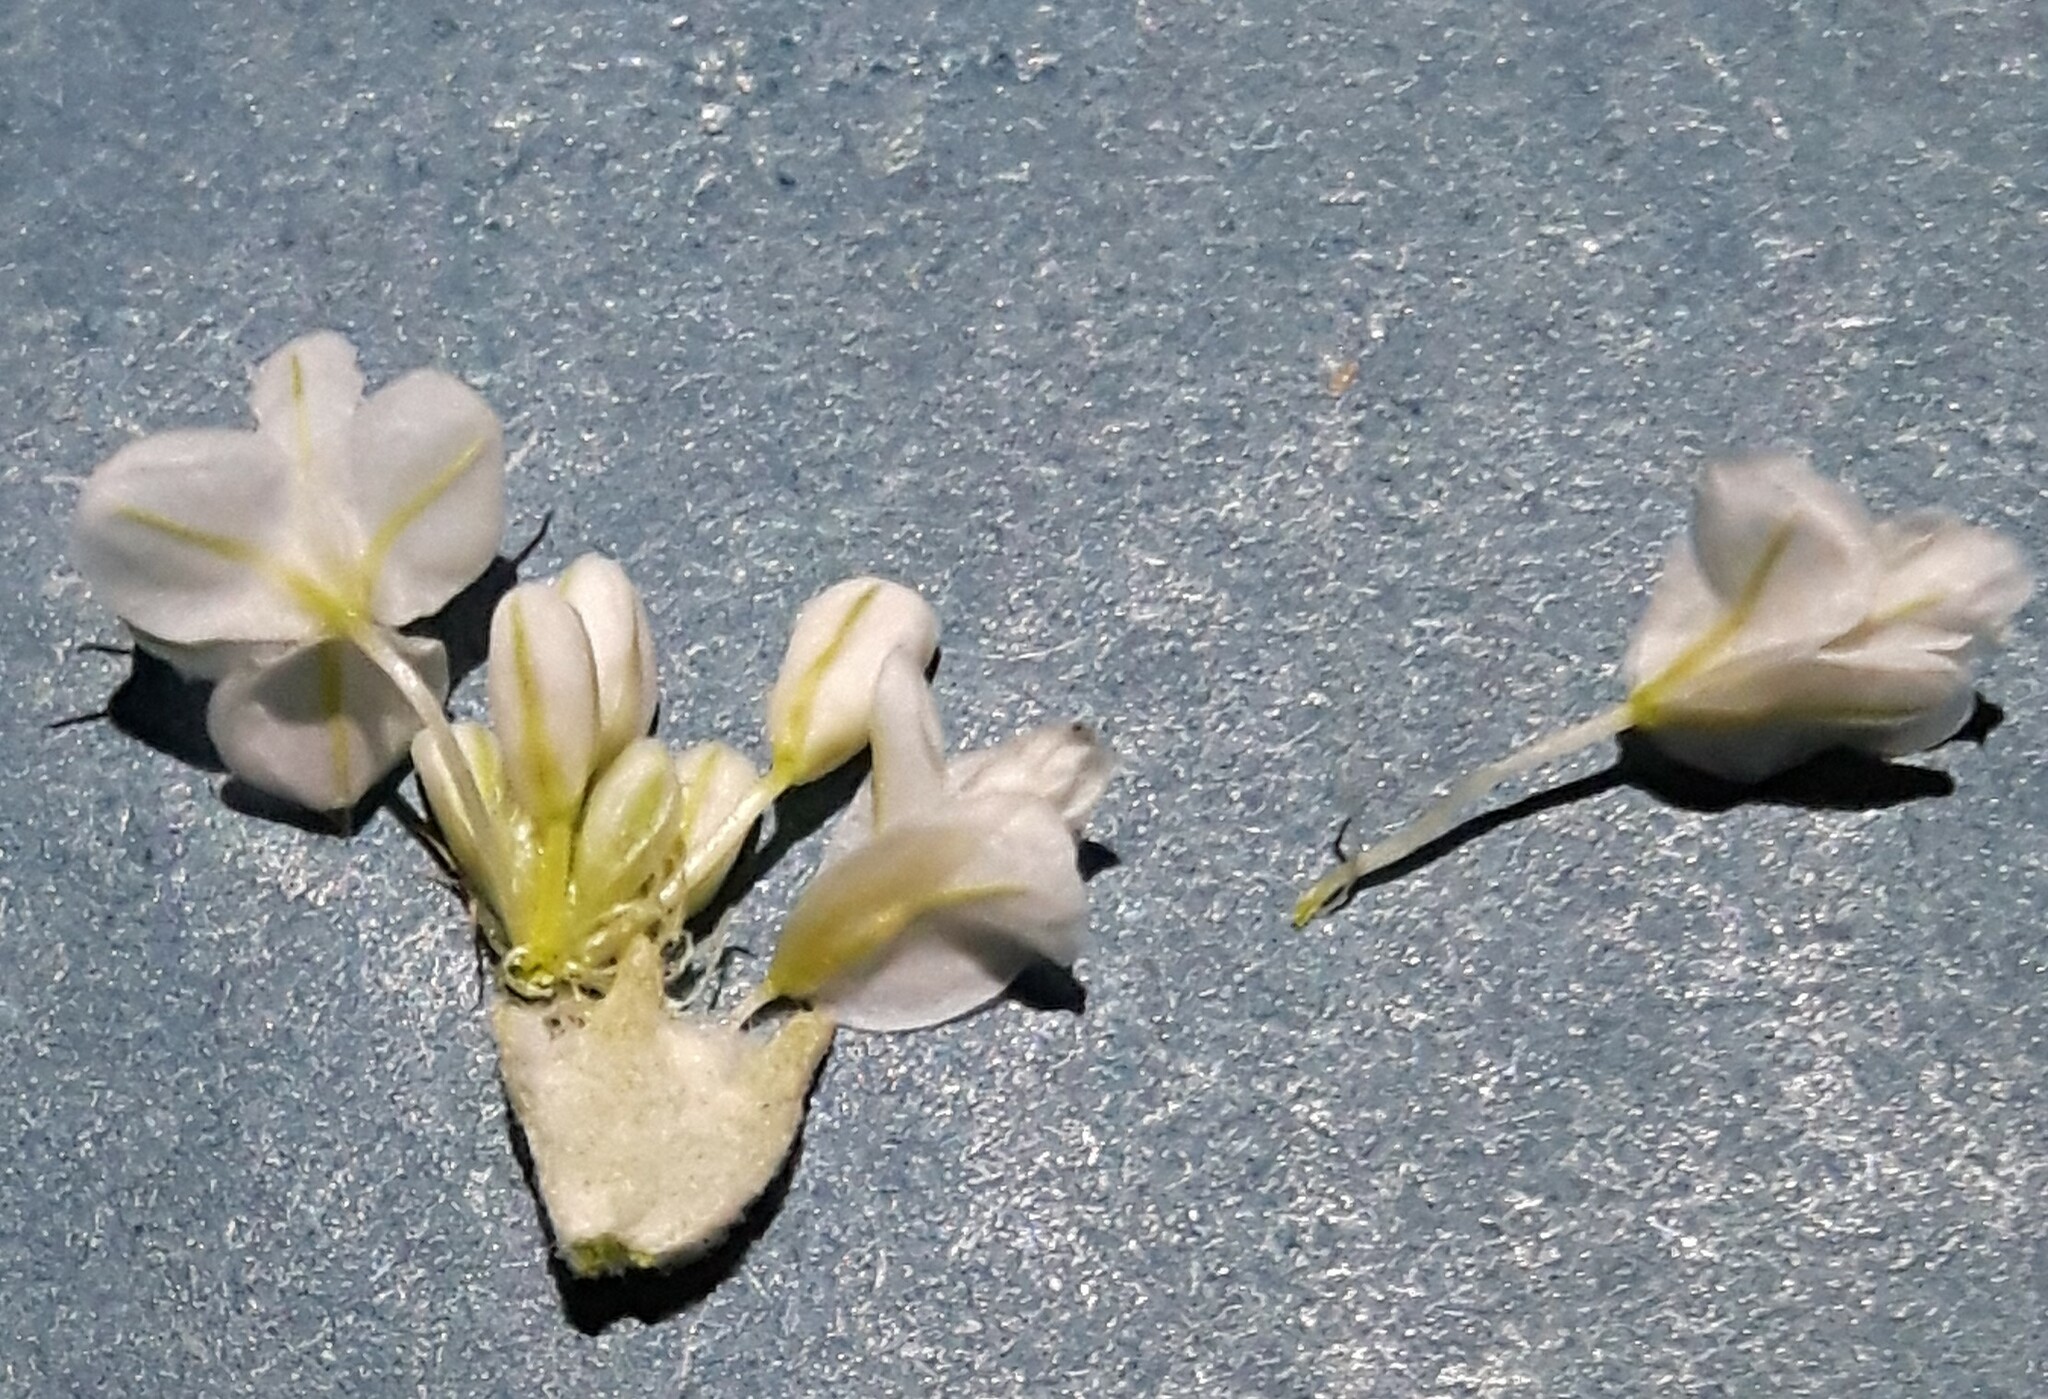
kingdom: Plantae
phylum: Tracheophyta
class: Magnoliopsida
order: Caryophyllales
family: Polygonaceae
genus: Eriogonum
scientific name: Eriogonum niveum
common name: Snow wild buckwheat
